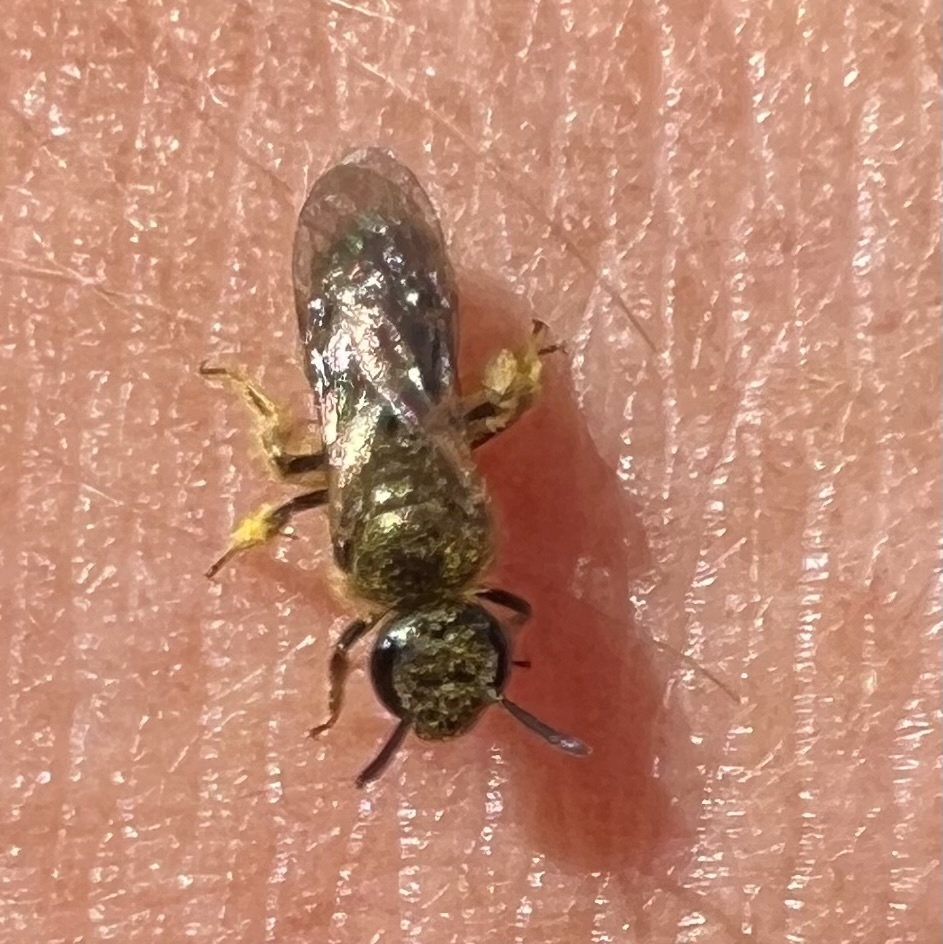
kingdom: Animalia
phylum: Arthropoda
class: Insecta
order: Hymenoptera
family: Halictidae
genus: Dialictus
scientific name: Dialictus
